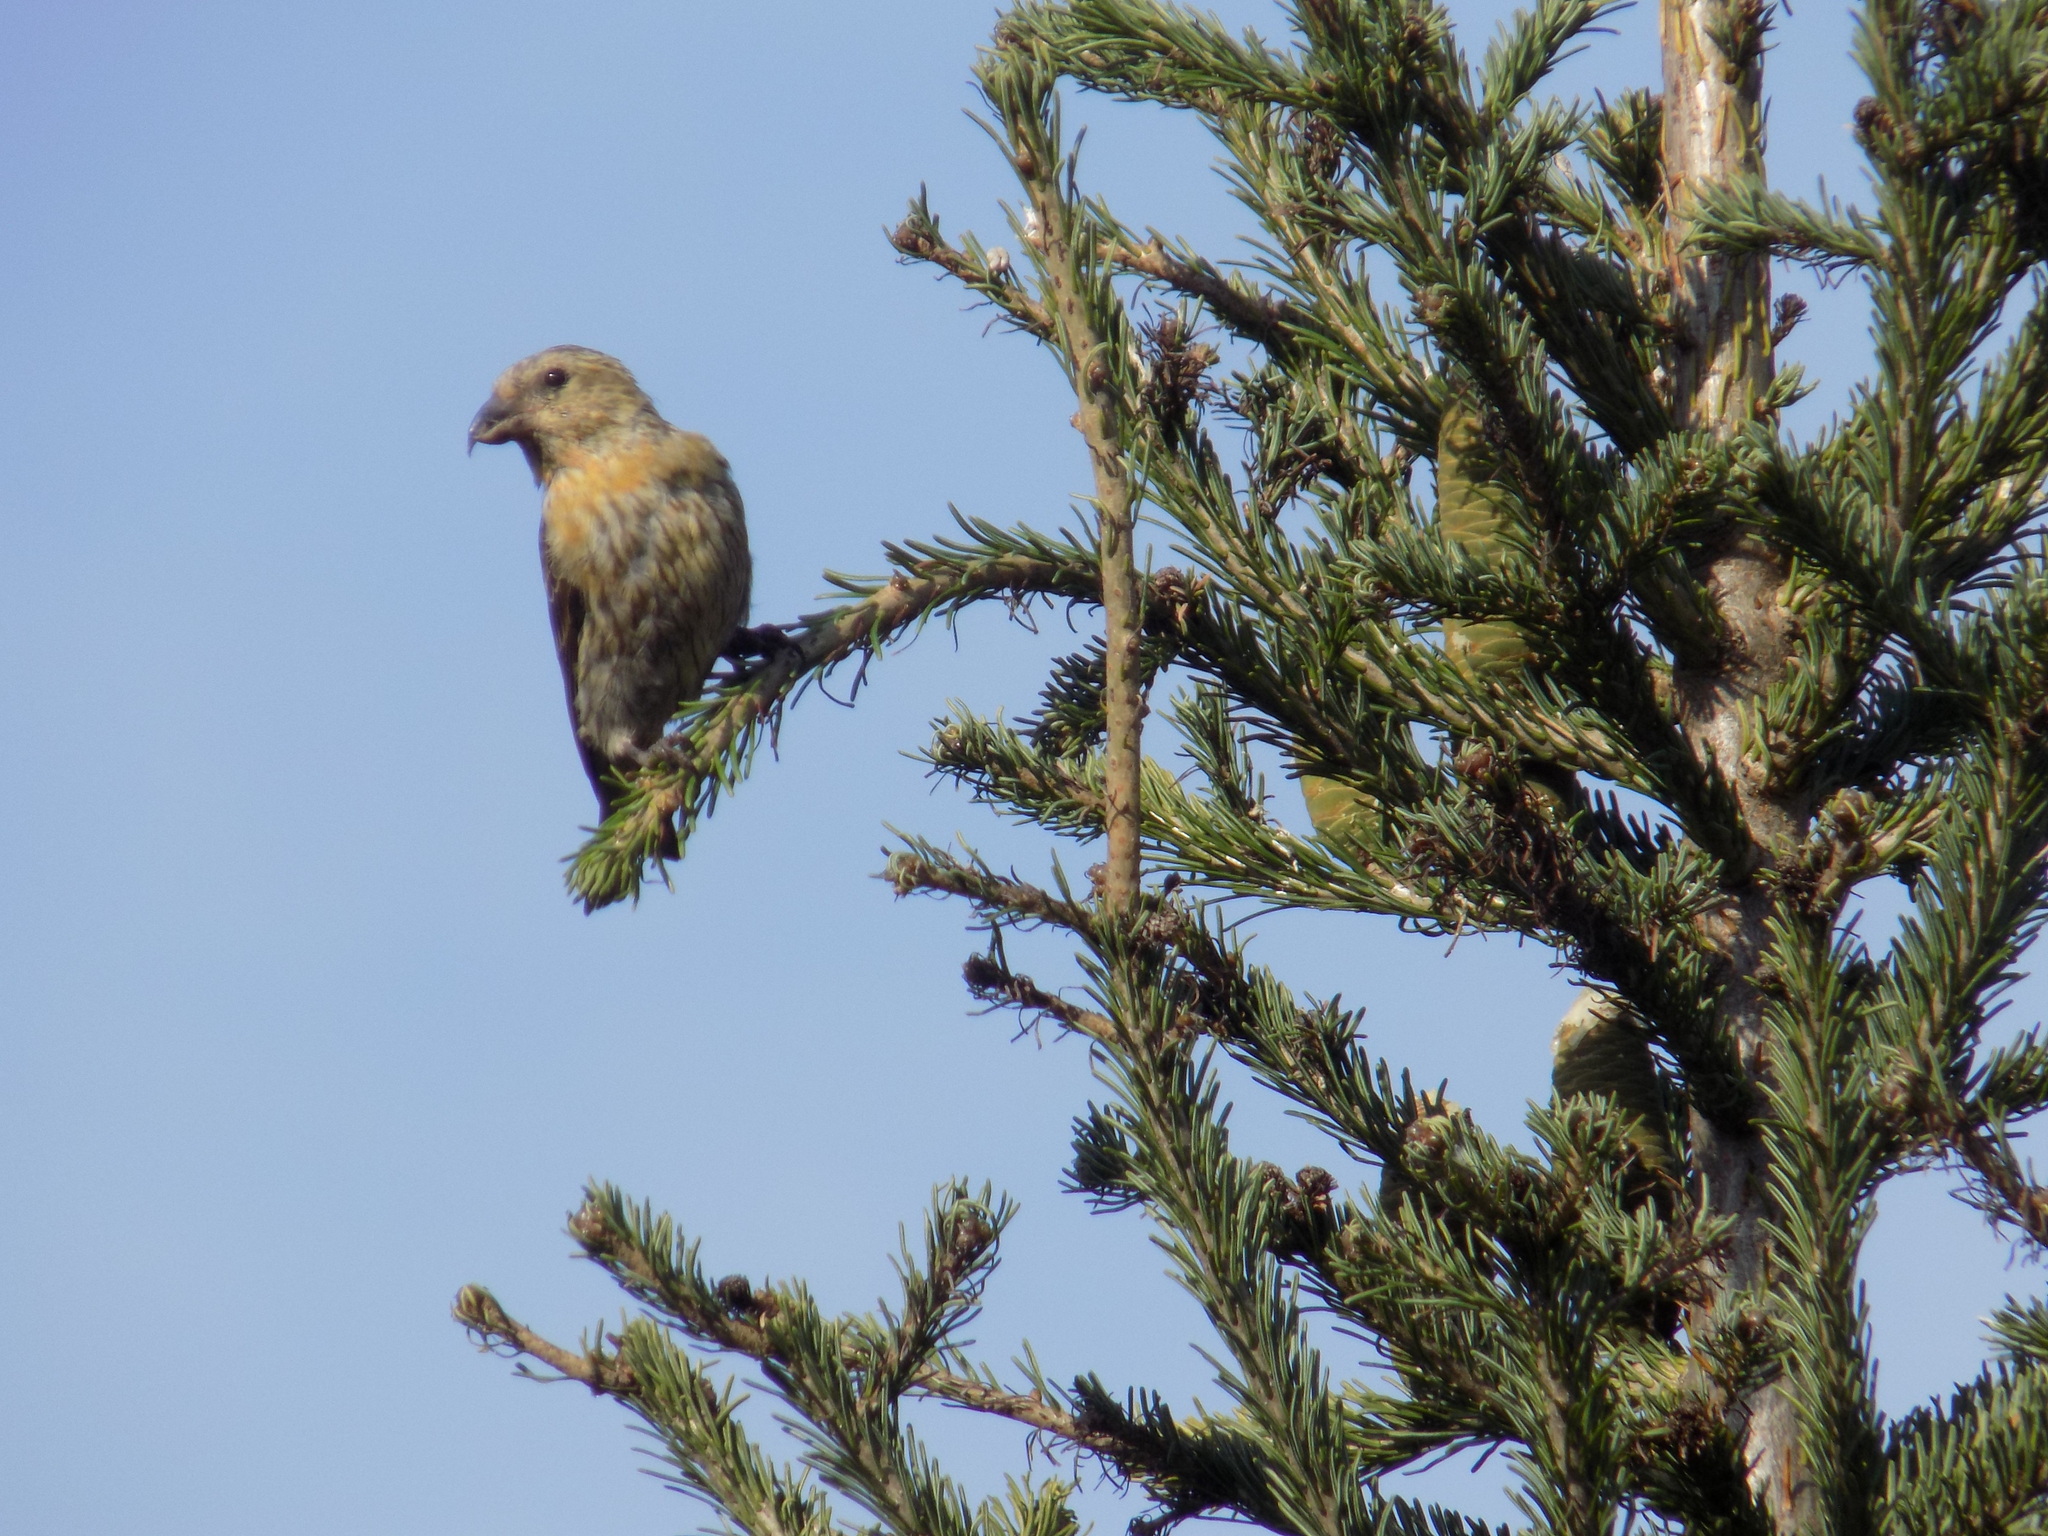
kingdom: Animalia
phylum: Chordata
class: Aves
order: Passeriformes
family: Fringillidae
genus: Loxia
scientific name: Loxia curvirostra
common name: Red crossbill
